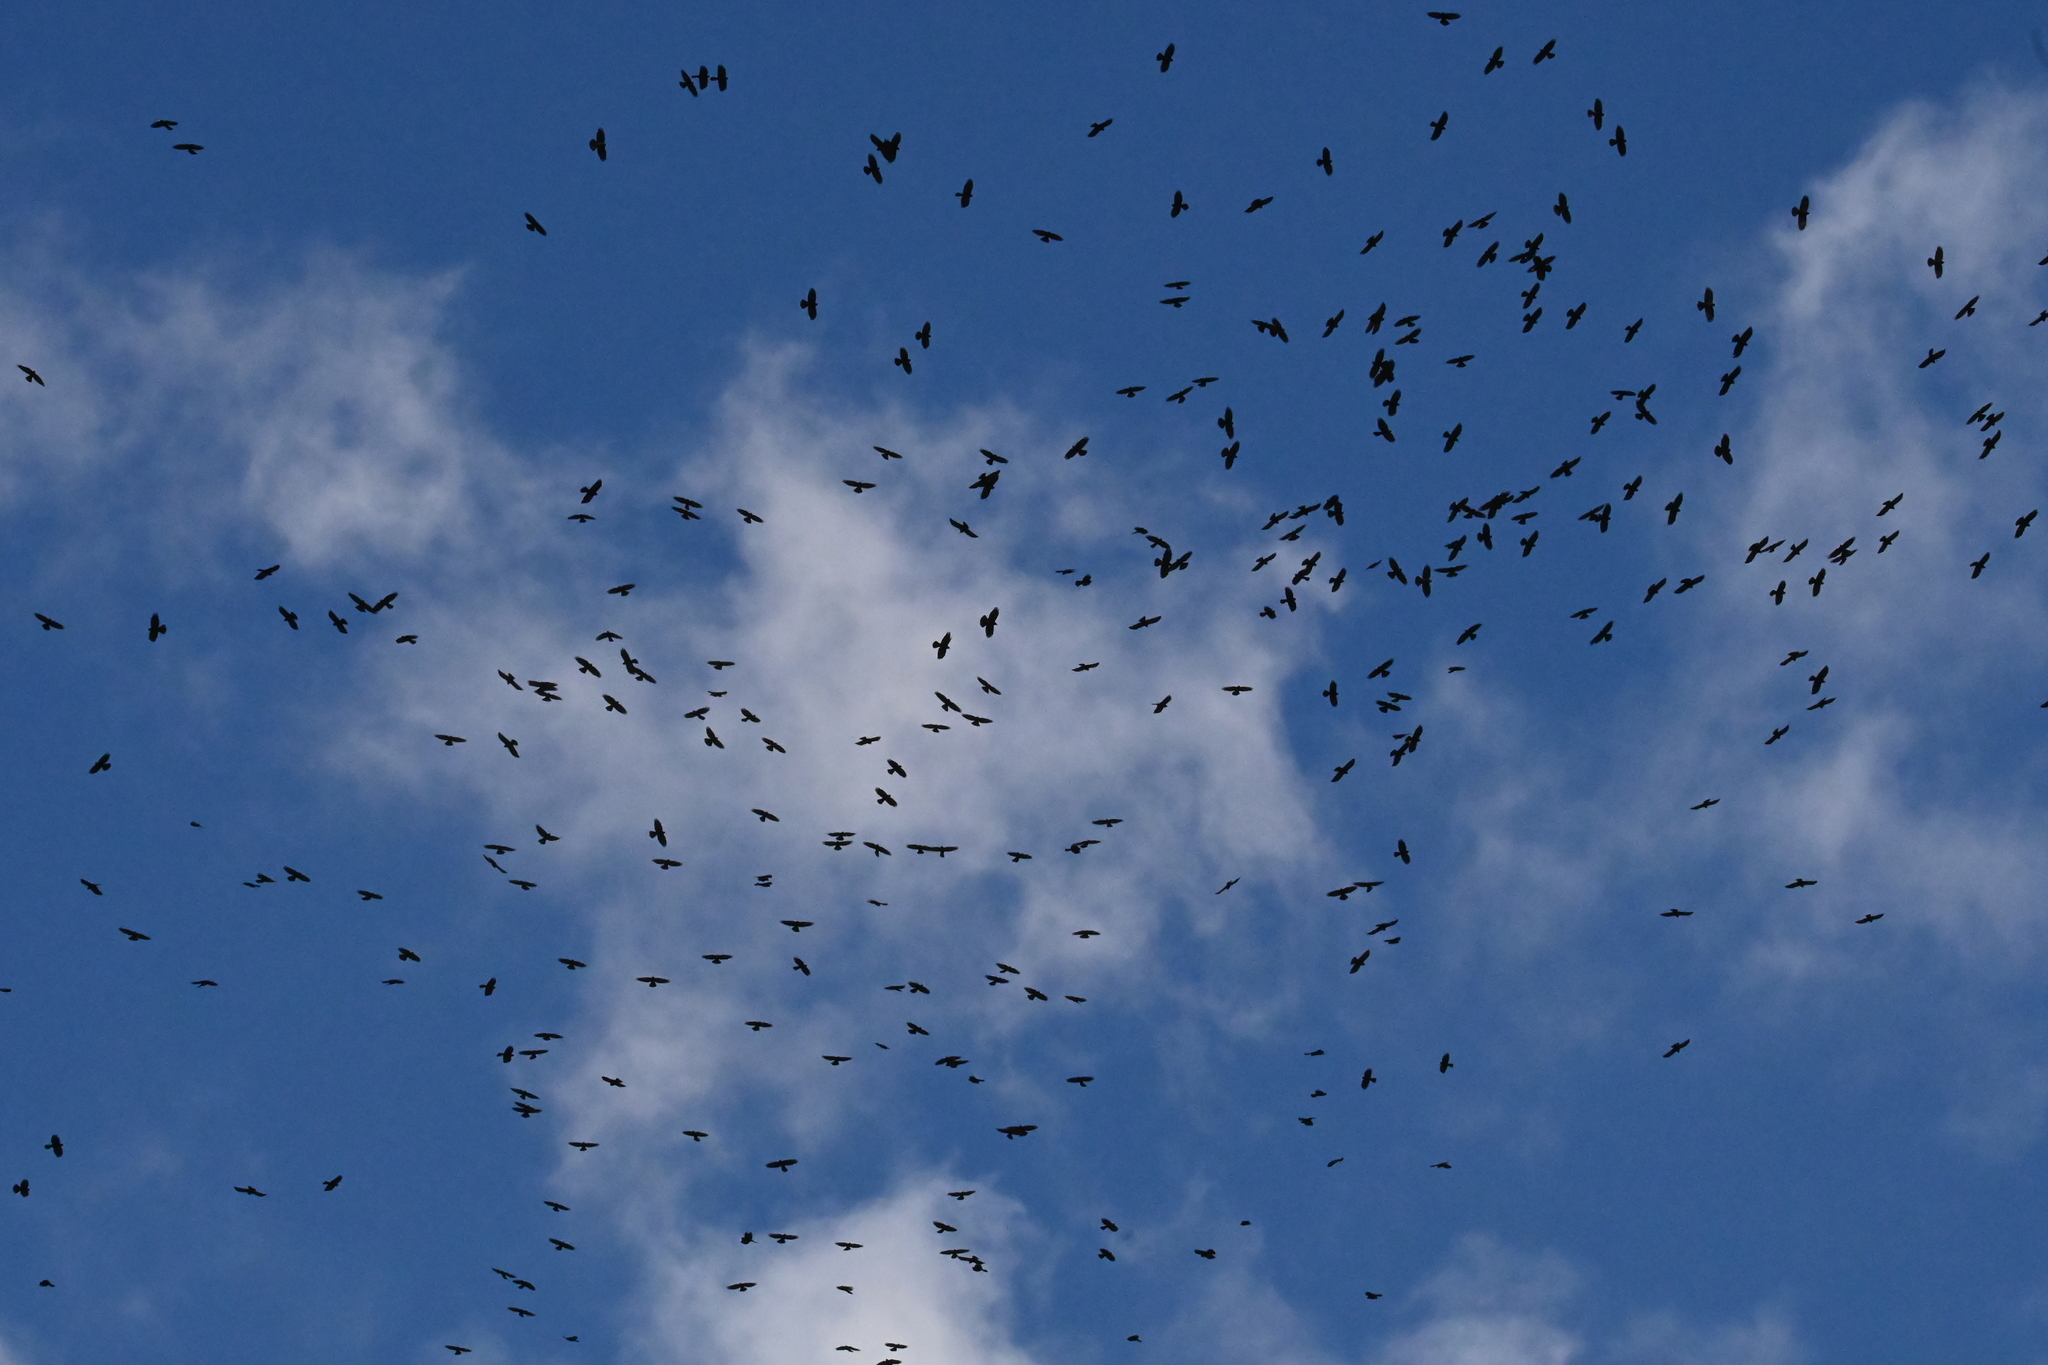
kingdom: Animalia
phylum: Chordata
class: Aves
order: Passeriformes
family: Corvidae
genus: Pyrrhocorax
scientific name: Pyrrhocorax graculus
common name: Alpine chough
